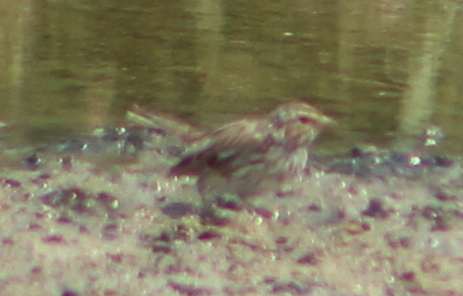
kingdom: Animalia
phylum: Chordata
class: Aves
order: Passeriformes
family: Passerellidae
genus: Passerculus
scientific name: Passerculus sandwichensis
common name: Savannah sparrow
